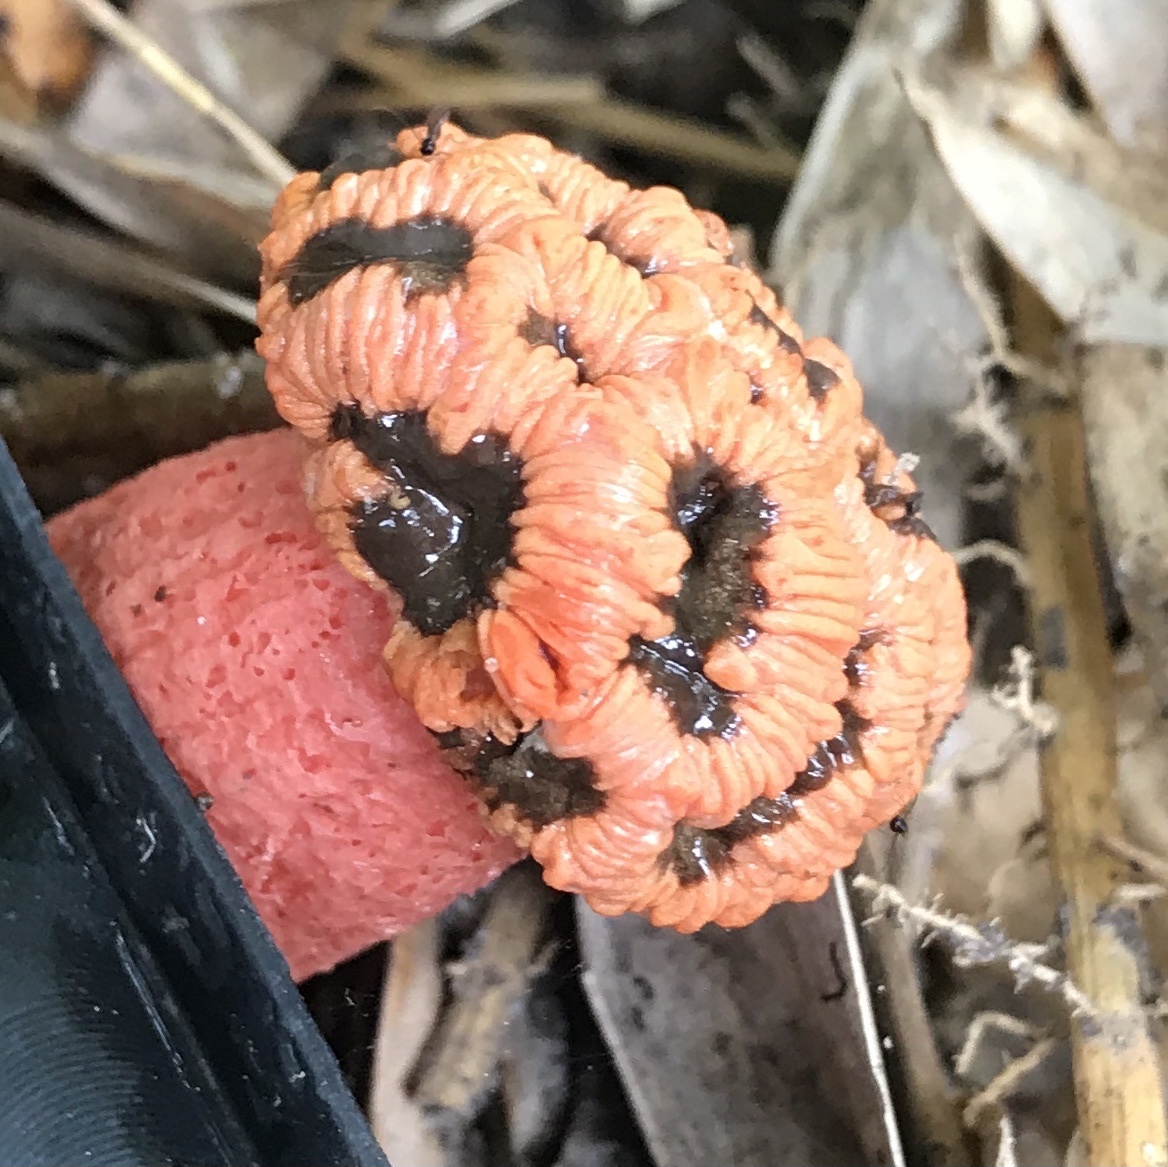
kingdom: Fungi
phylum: Basidiomycota
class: Agaricomycetes
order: Phallales
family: Phallaceae
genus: Lysurus
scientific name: Lysurus periphragmoides
